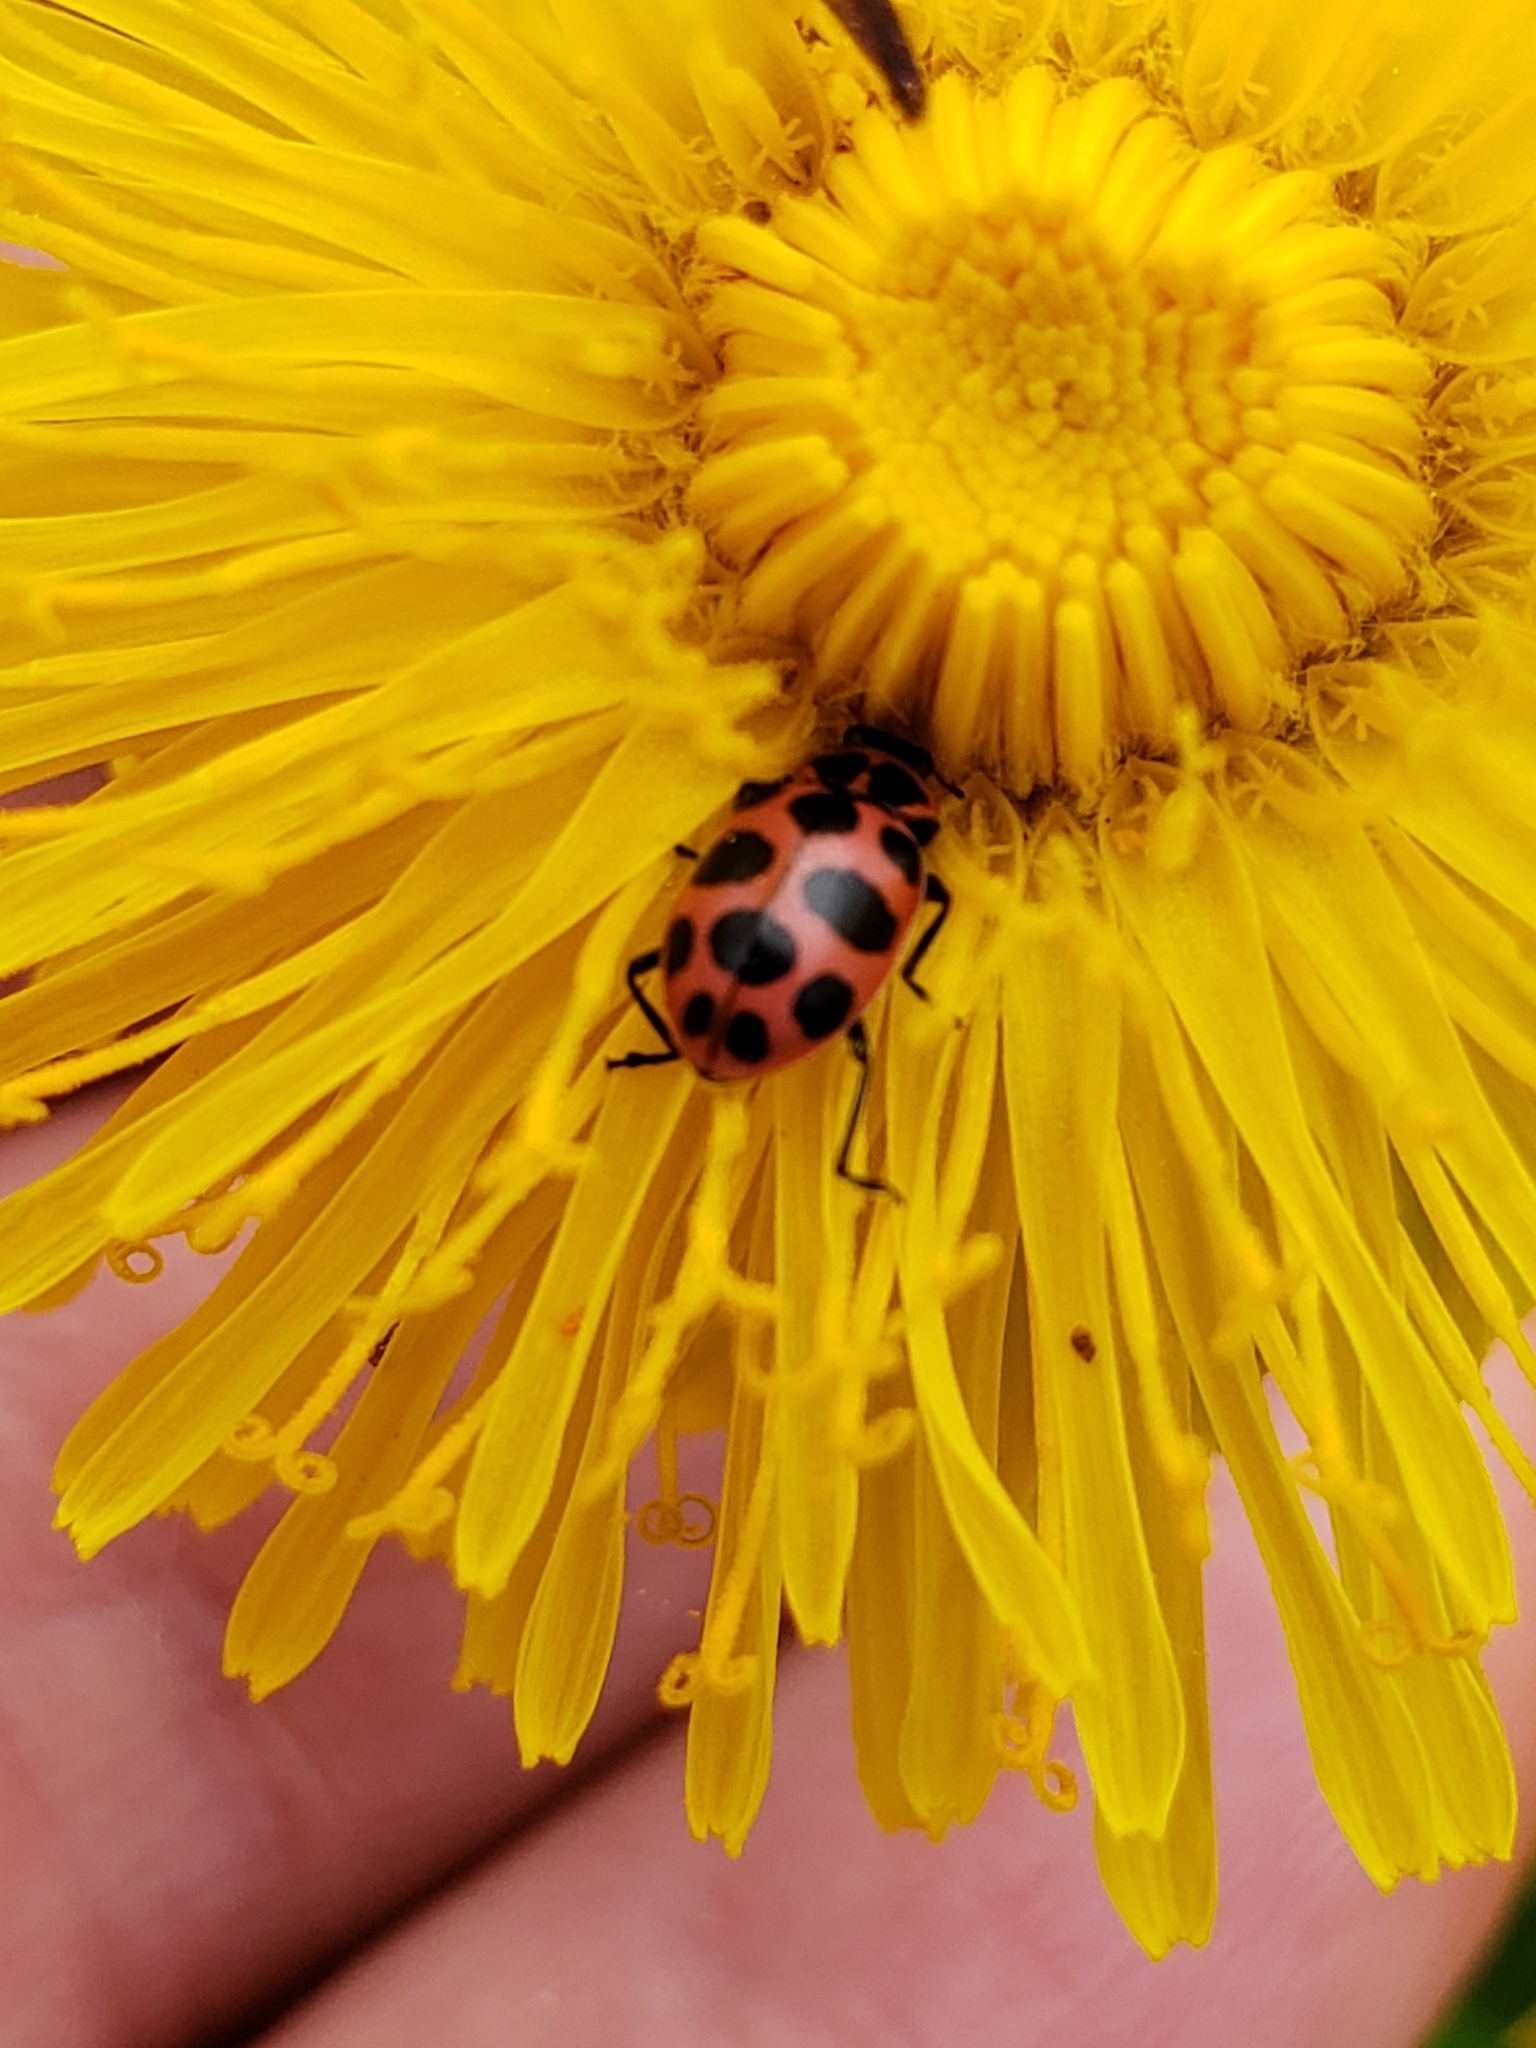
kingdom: Animalia
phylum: Arthropoda
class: Insecta
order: Coleoptera
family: Coccinellidae
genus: Coleomegilla
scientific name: Coleomegilla maculata
